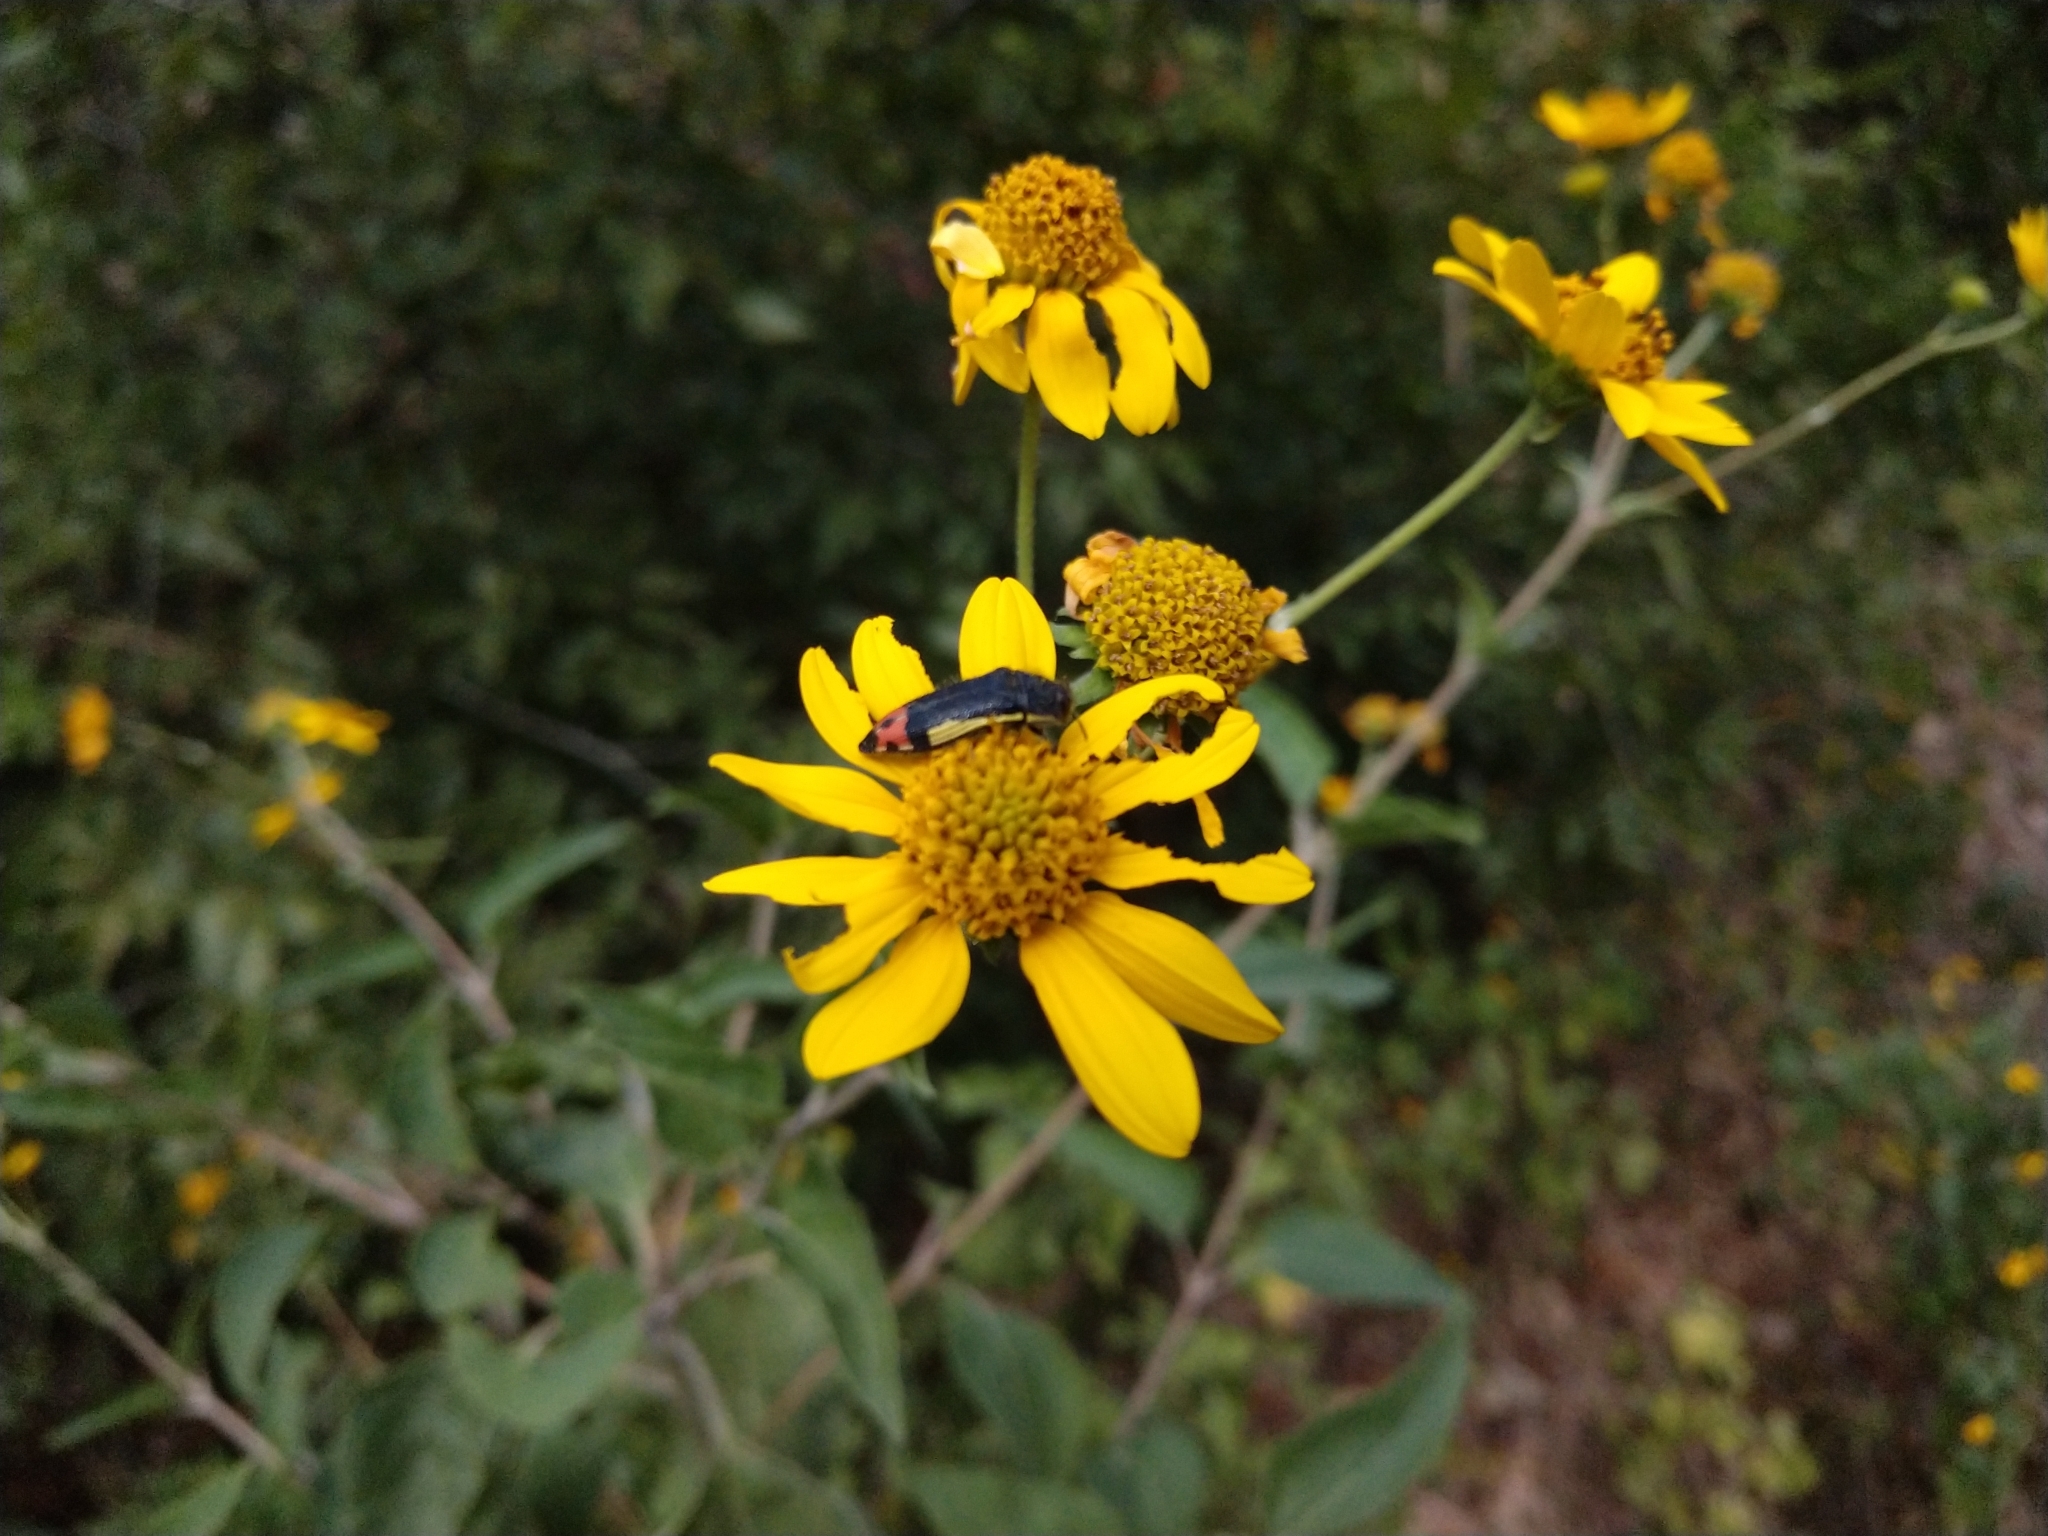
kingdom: Animalia
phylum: Arthropoda
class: Insecta
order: Coleoptera
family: Buprestidae
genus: Acmaeodera
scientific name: Acmaeodera flavomarginata
